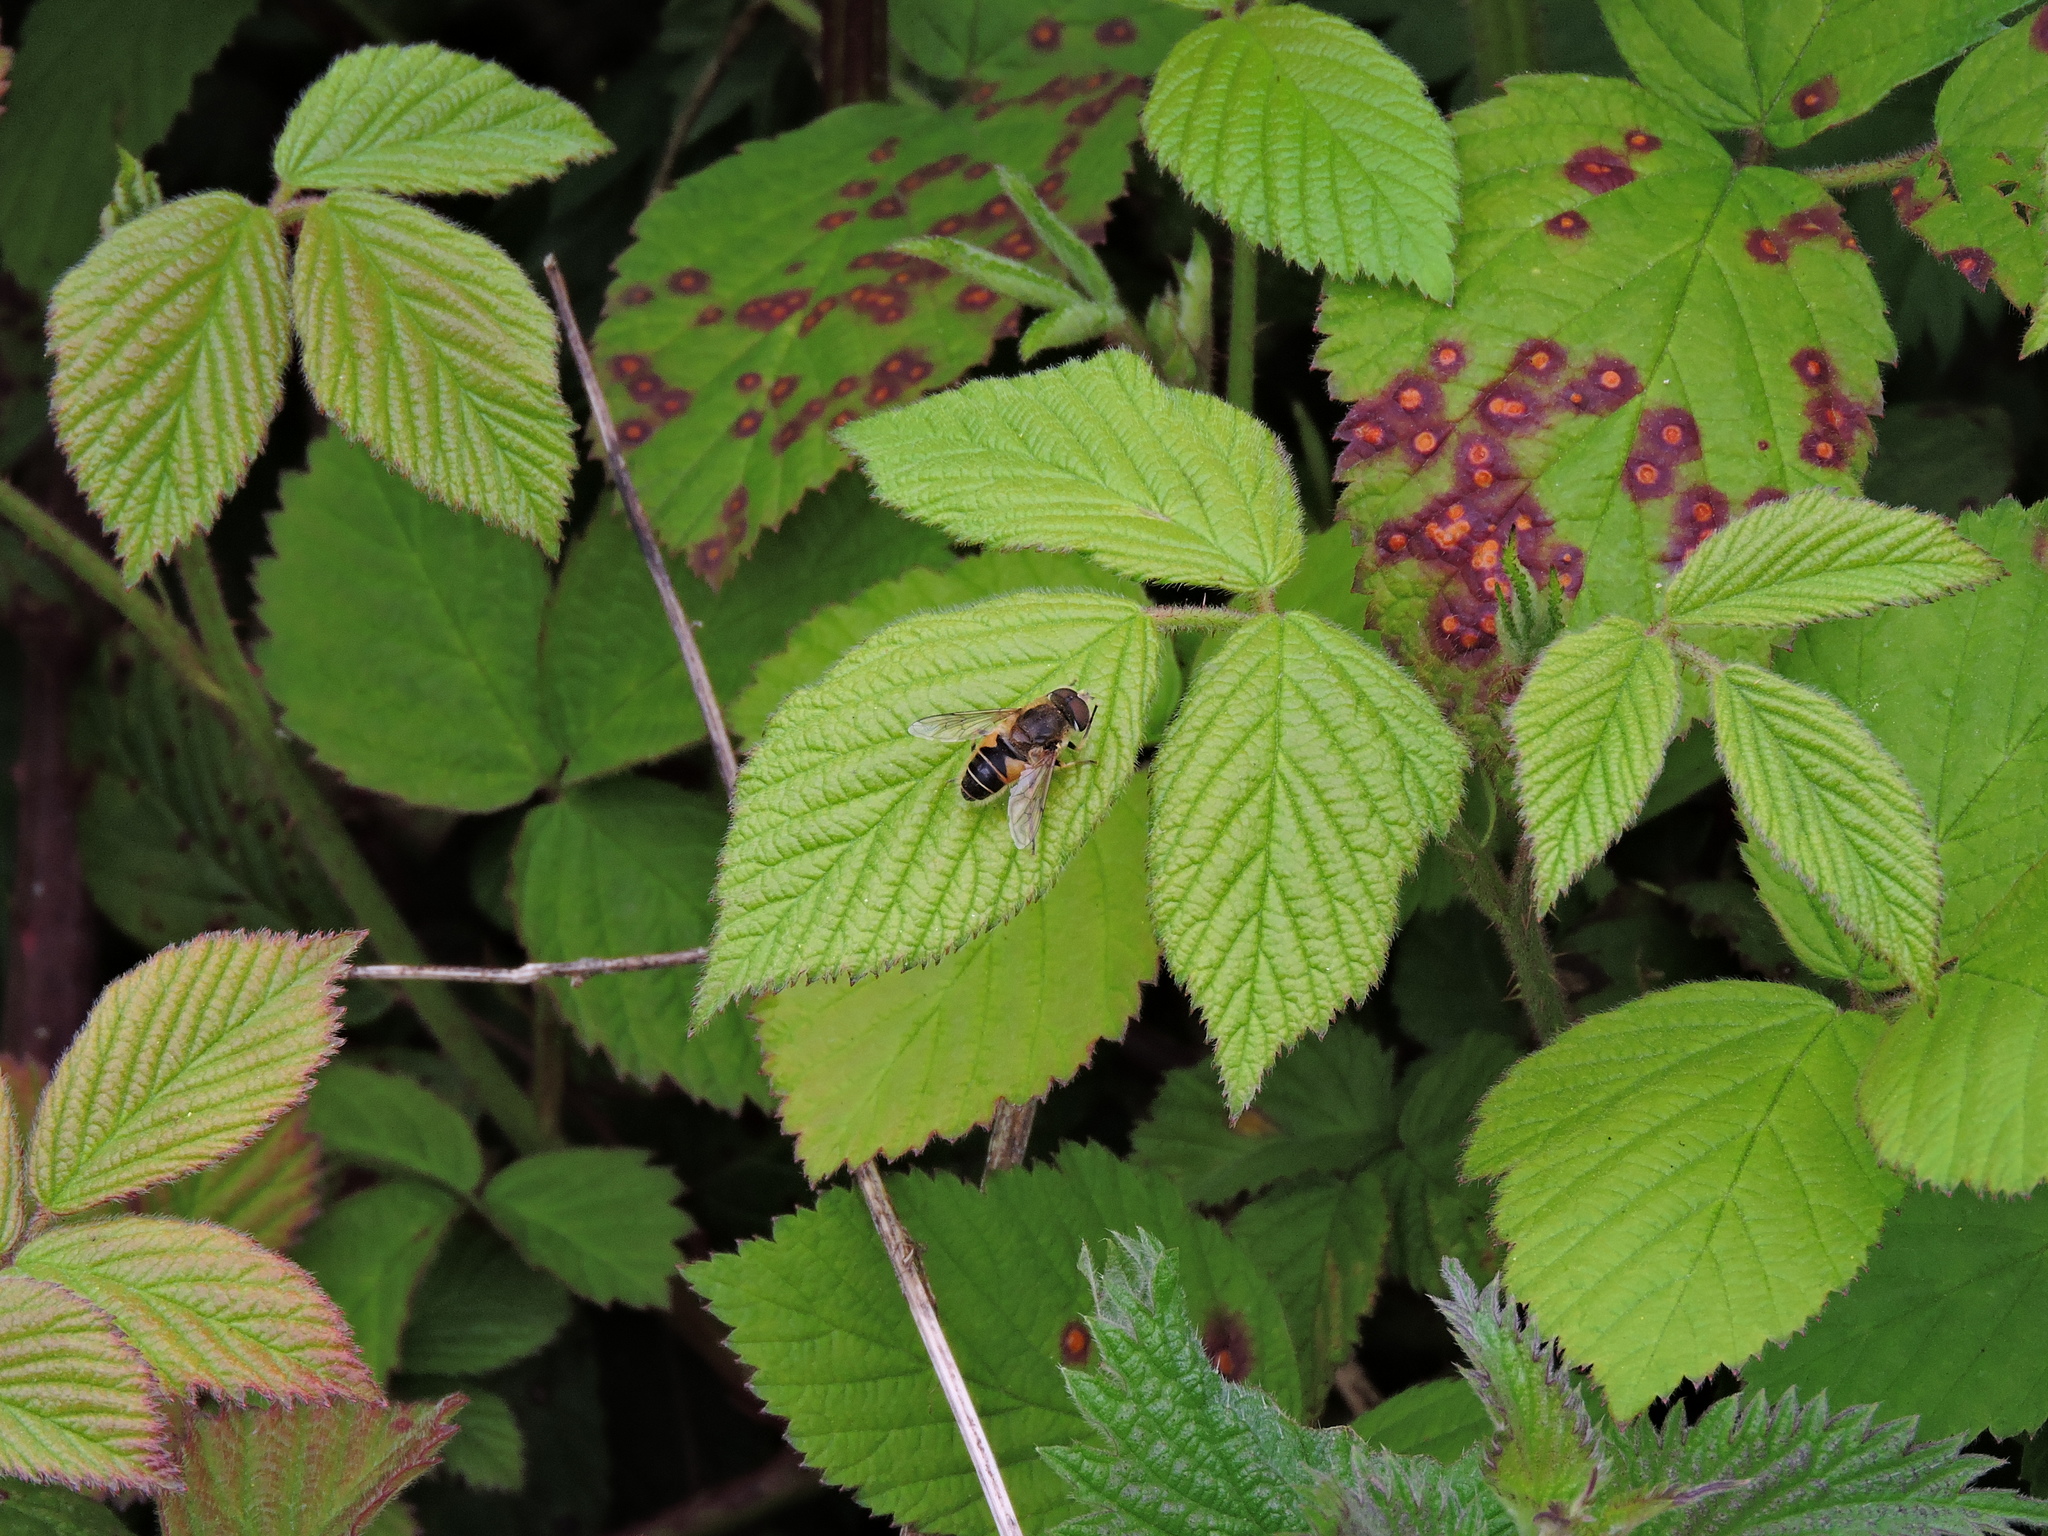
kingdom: Animalia
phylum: Arthropoda
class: Insecta
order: Diptera
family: Syrphidae
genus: Eristalis
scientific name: Eristalis nemorum
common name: Orange-spined drone fly
